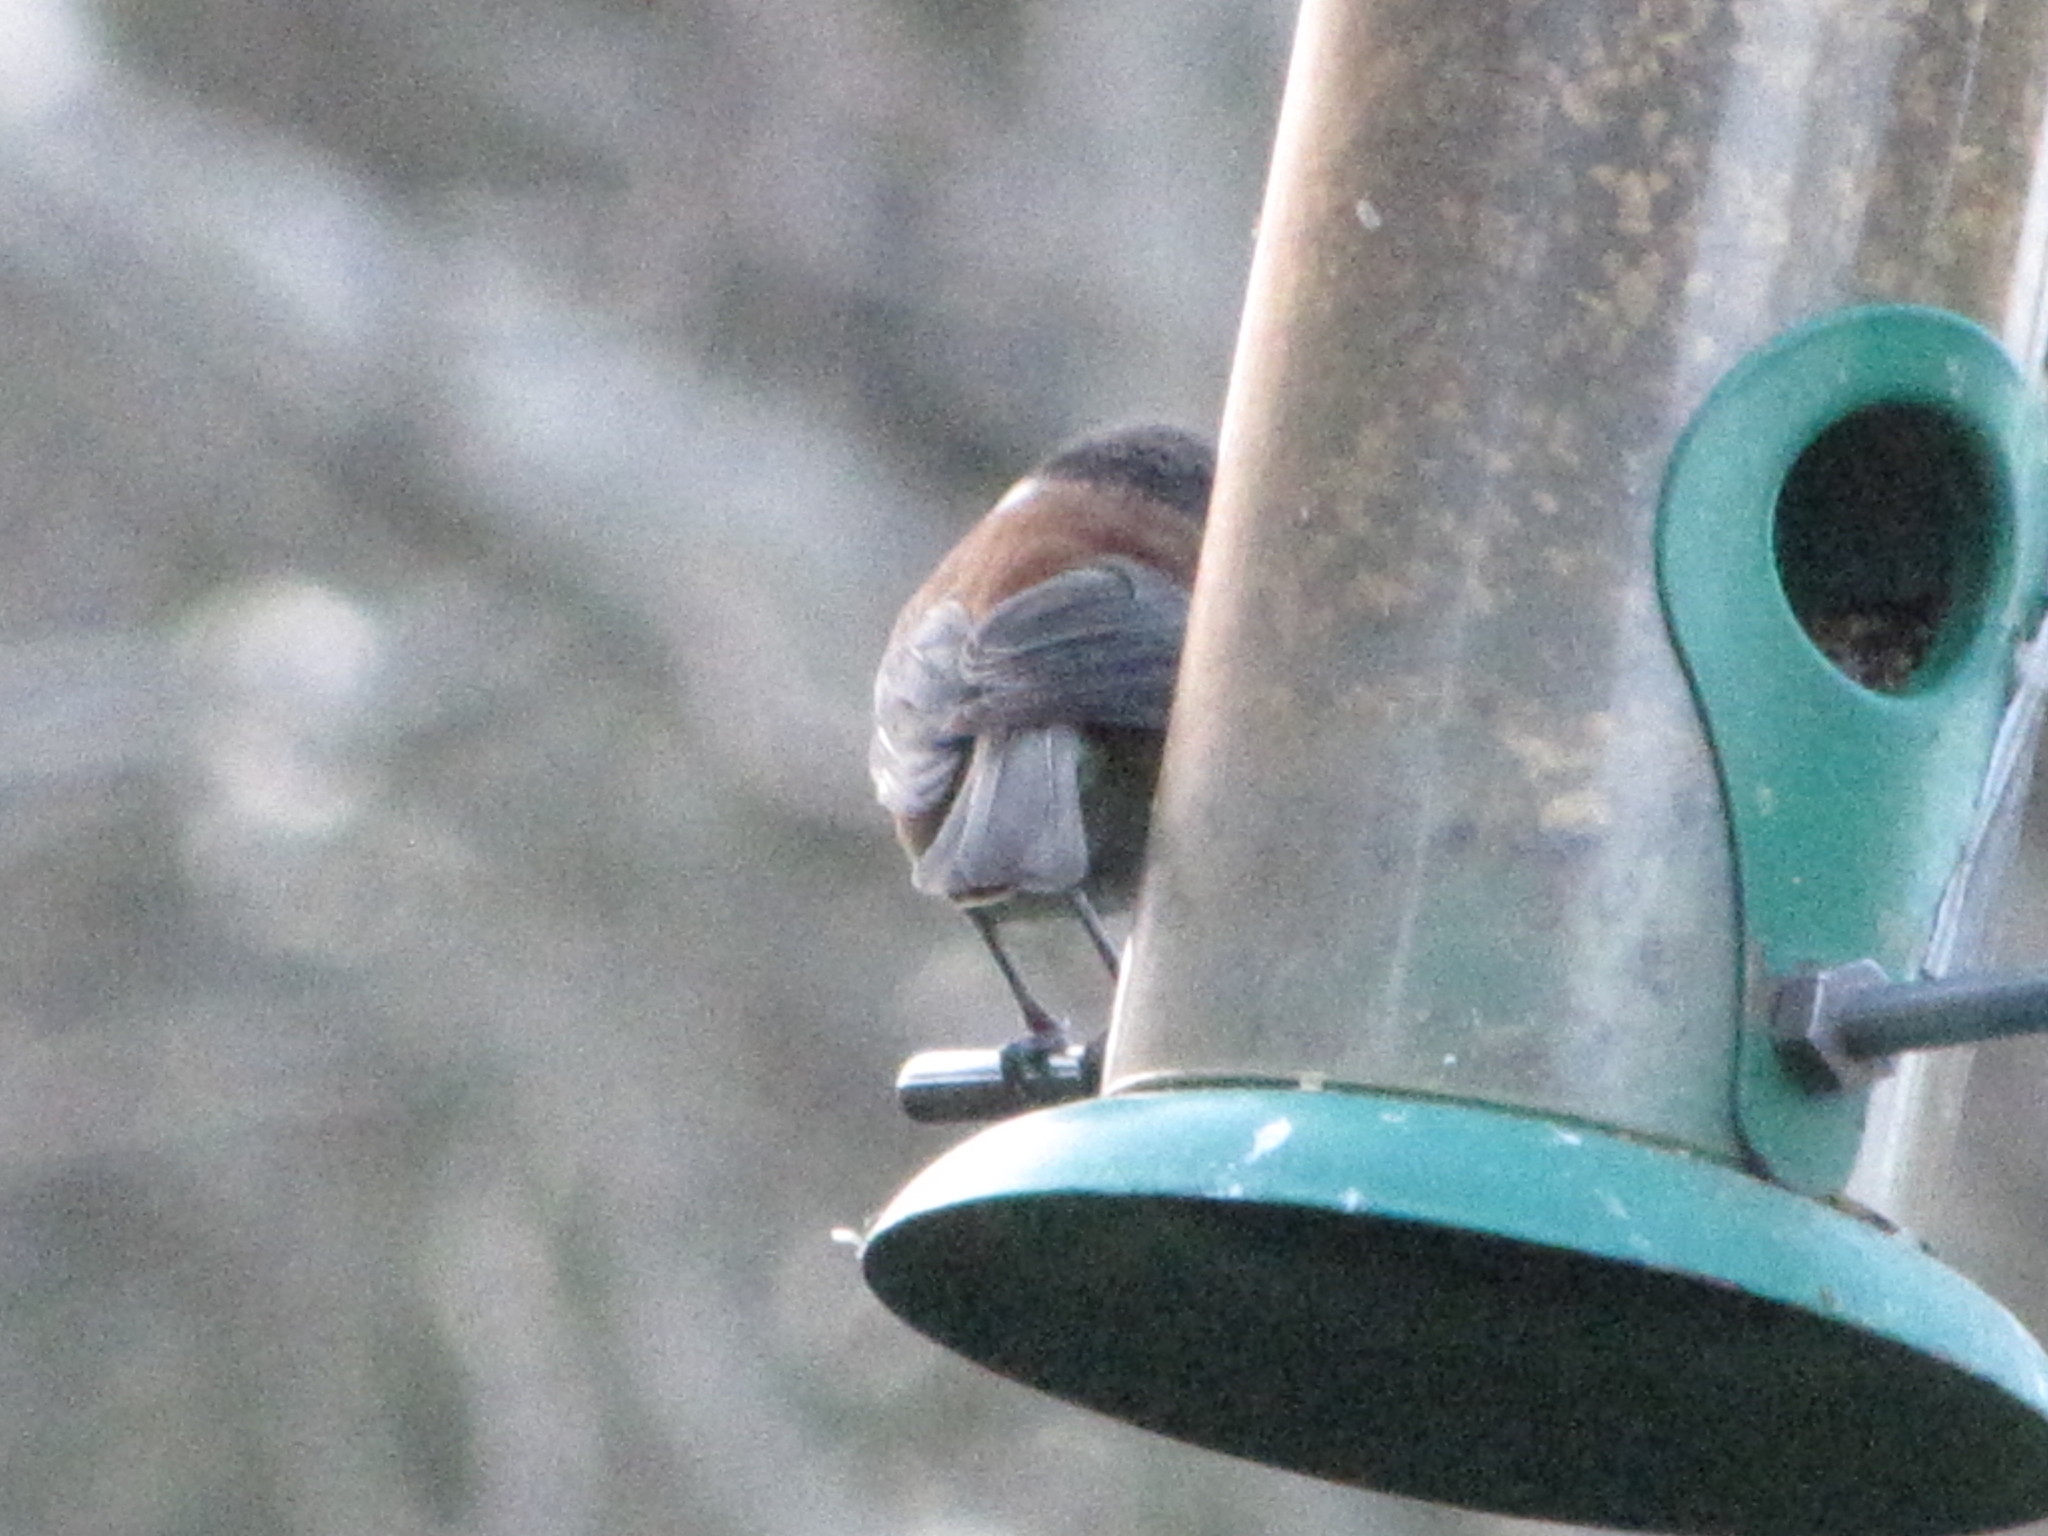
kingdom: Animalia
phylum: Chordata
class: Aves
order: Passeriformes
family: Paridae
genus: Poecile
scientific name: Poecile rufescens
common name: Chestnut-backed chickadee
